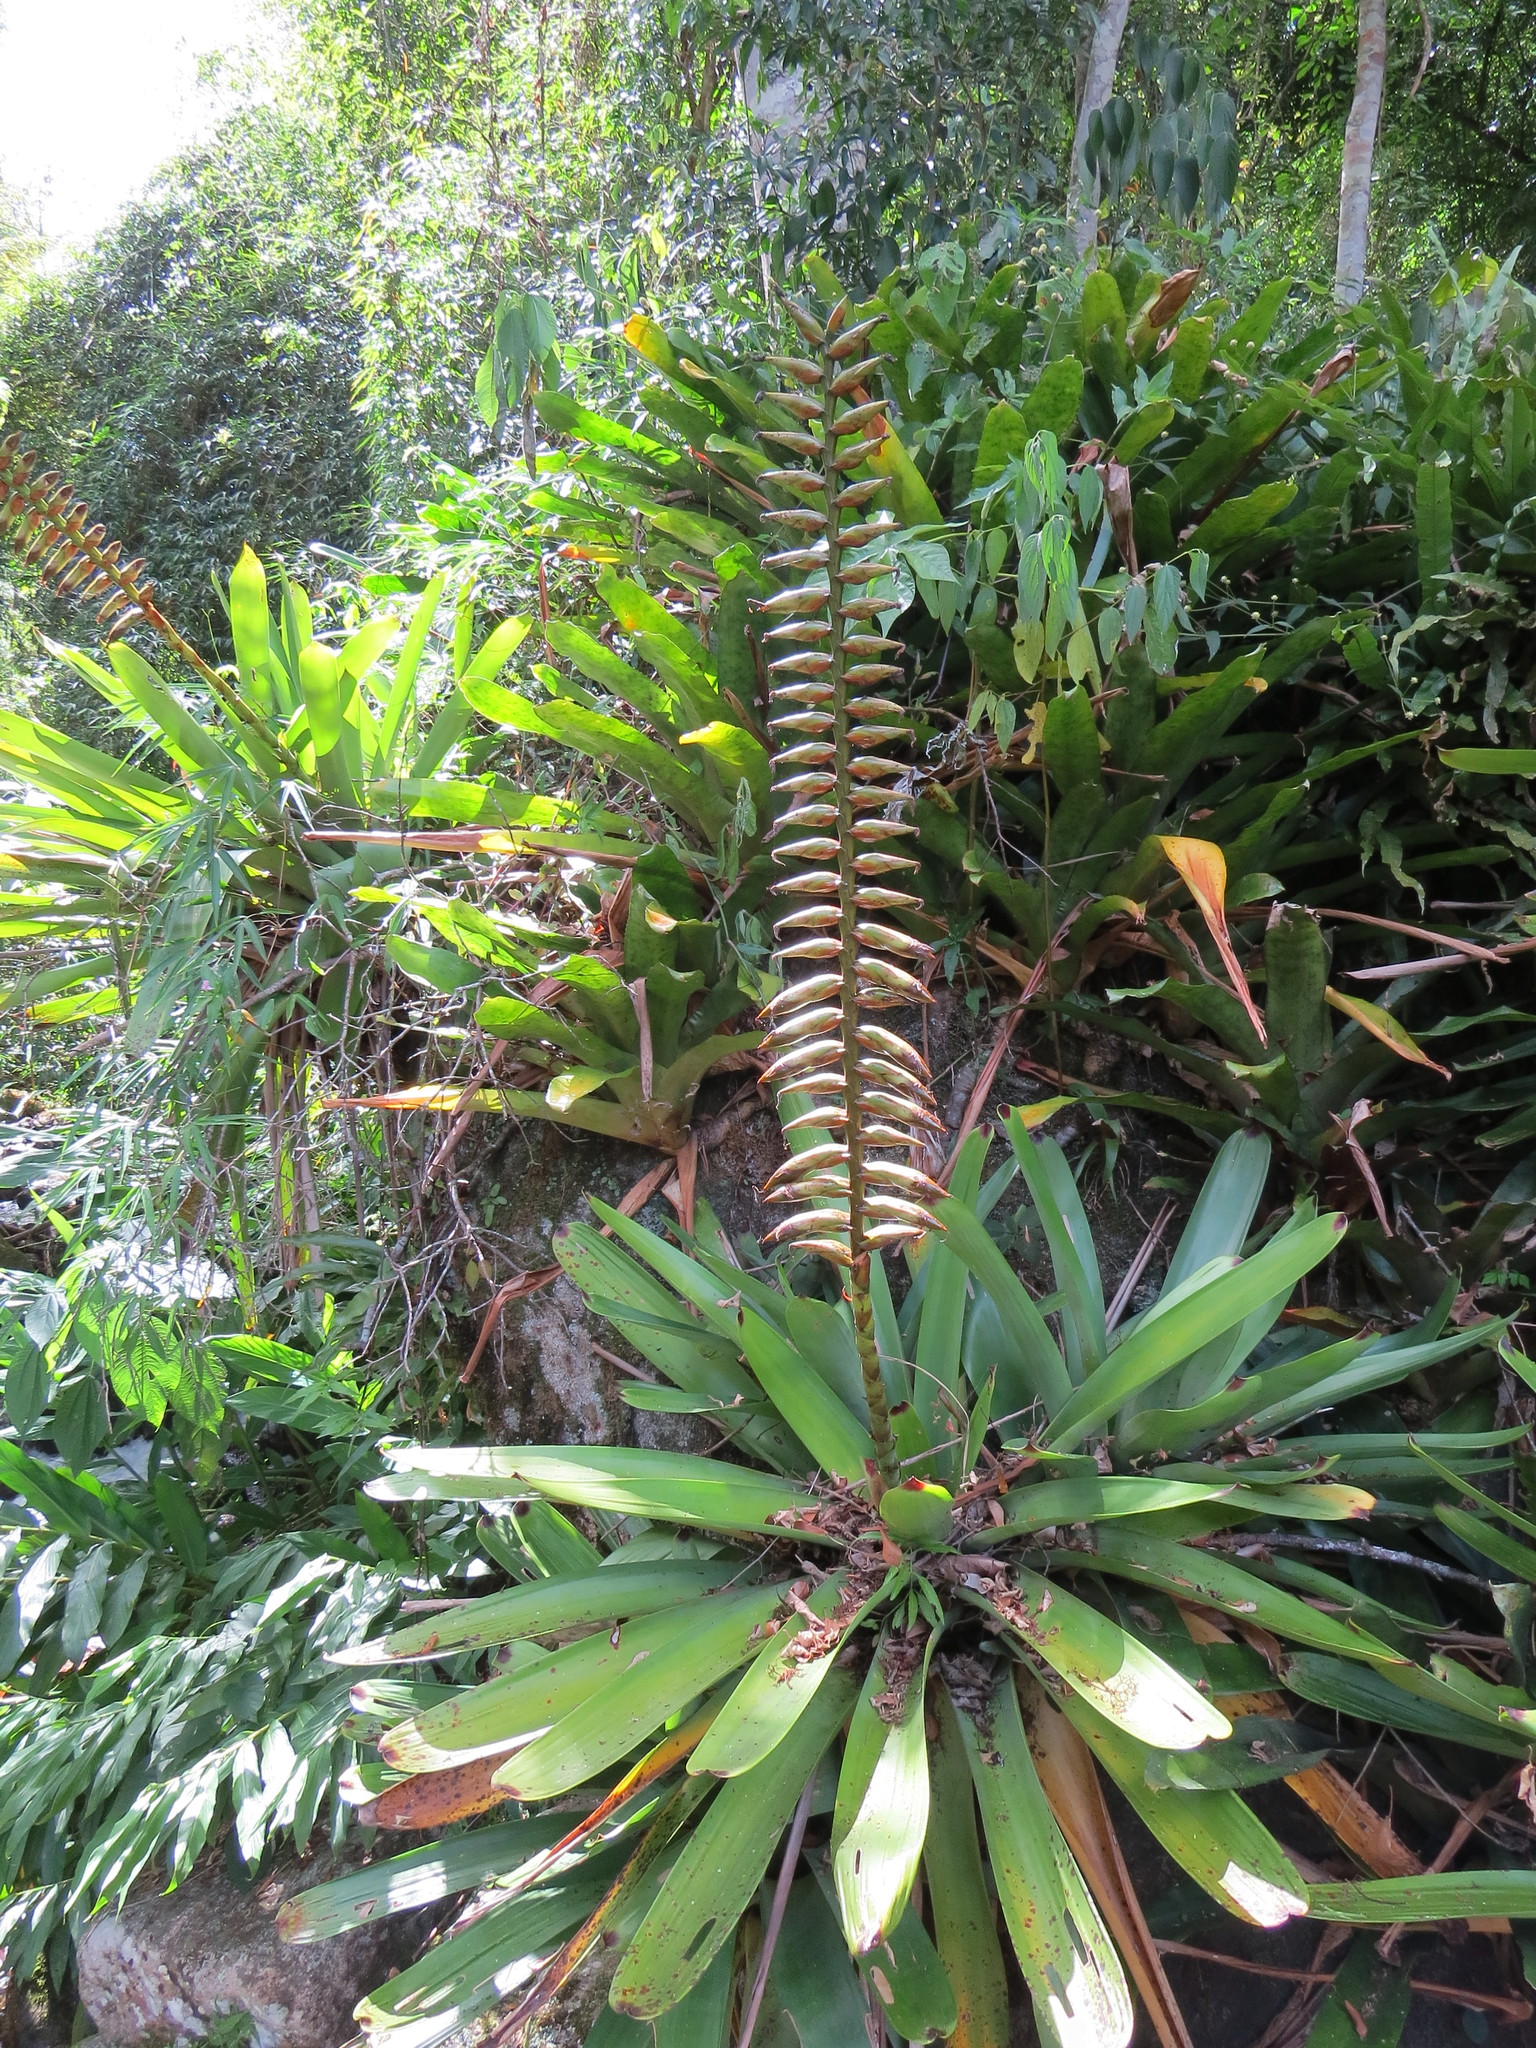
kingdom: Plantae
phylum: Tracheophyta
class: Liliopsida
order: Poales
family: Bromeliaceae
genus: Vriesea
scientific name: Vriesea bituminosa
